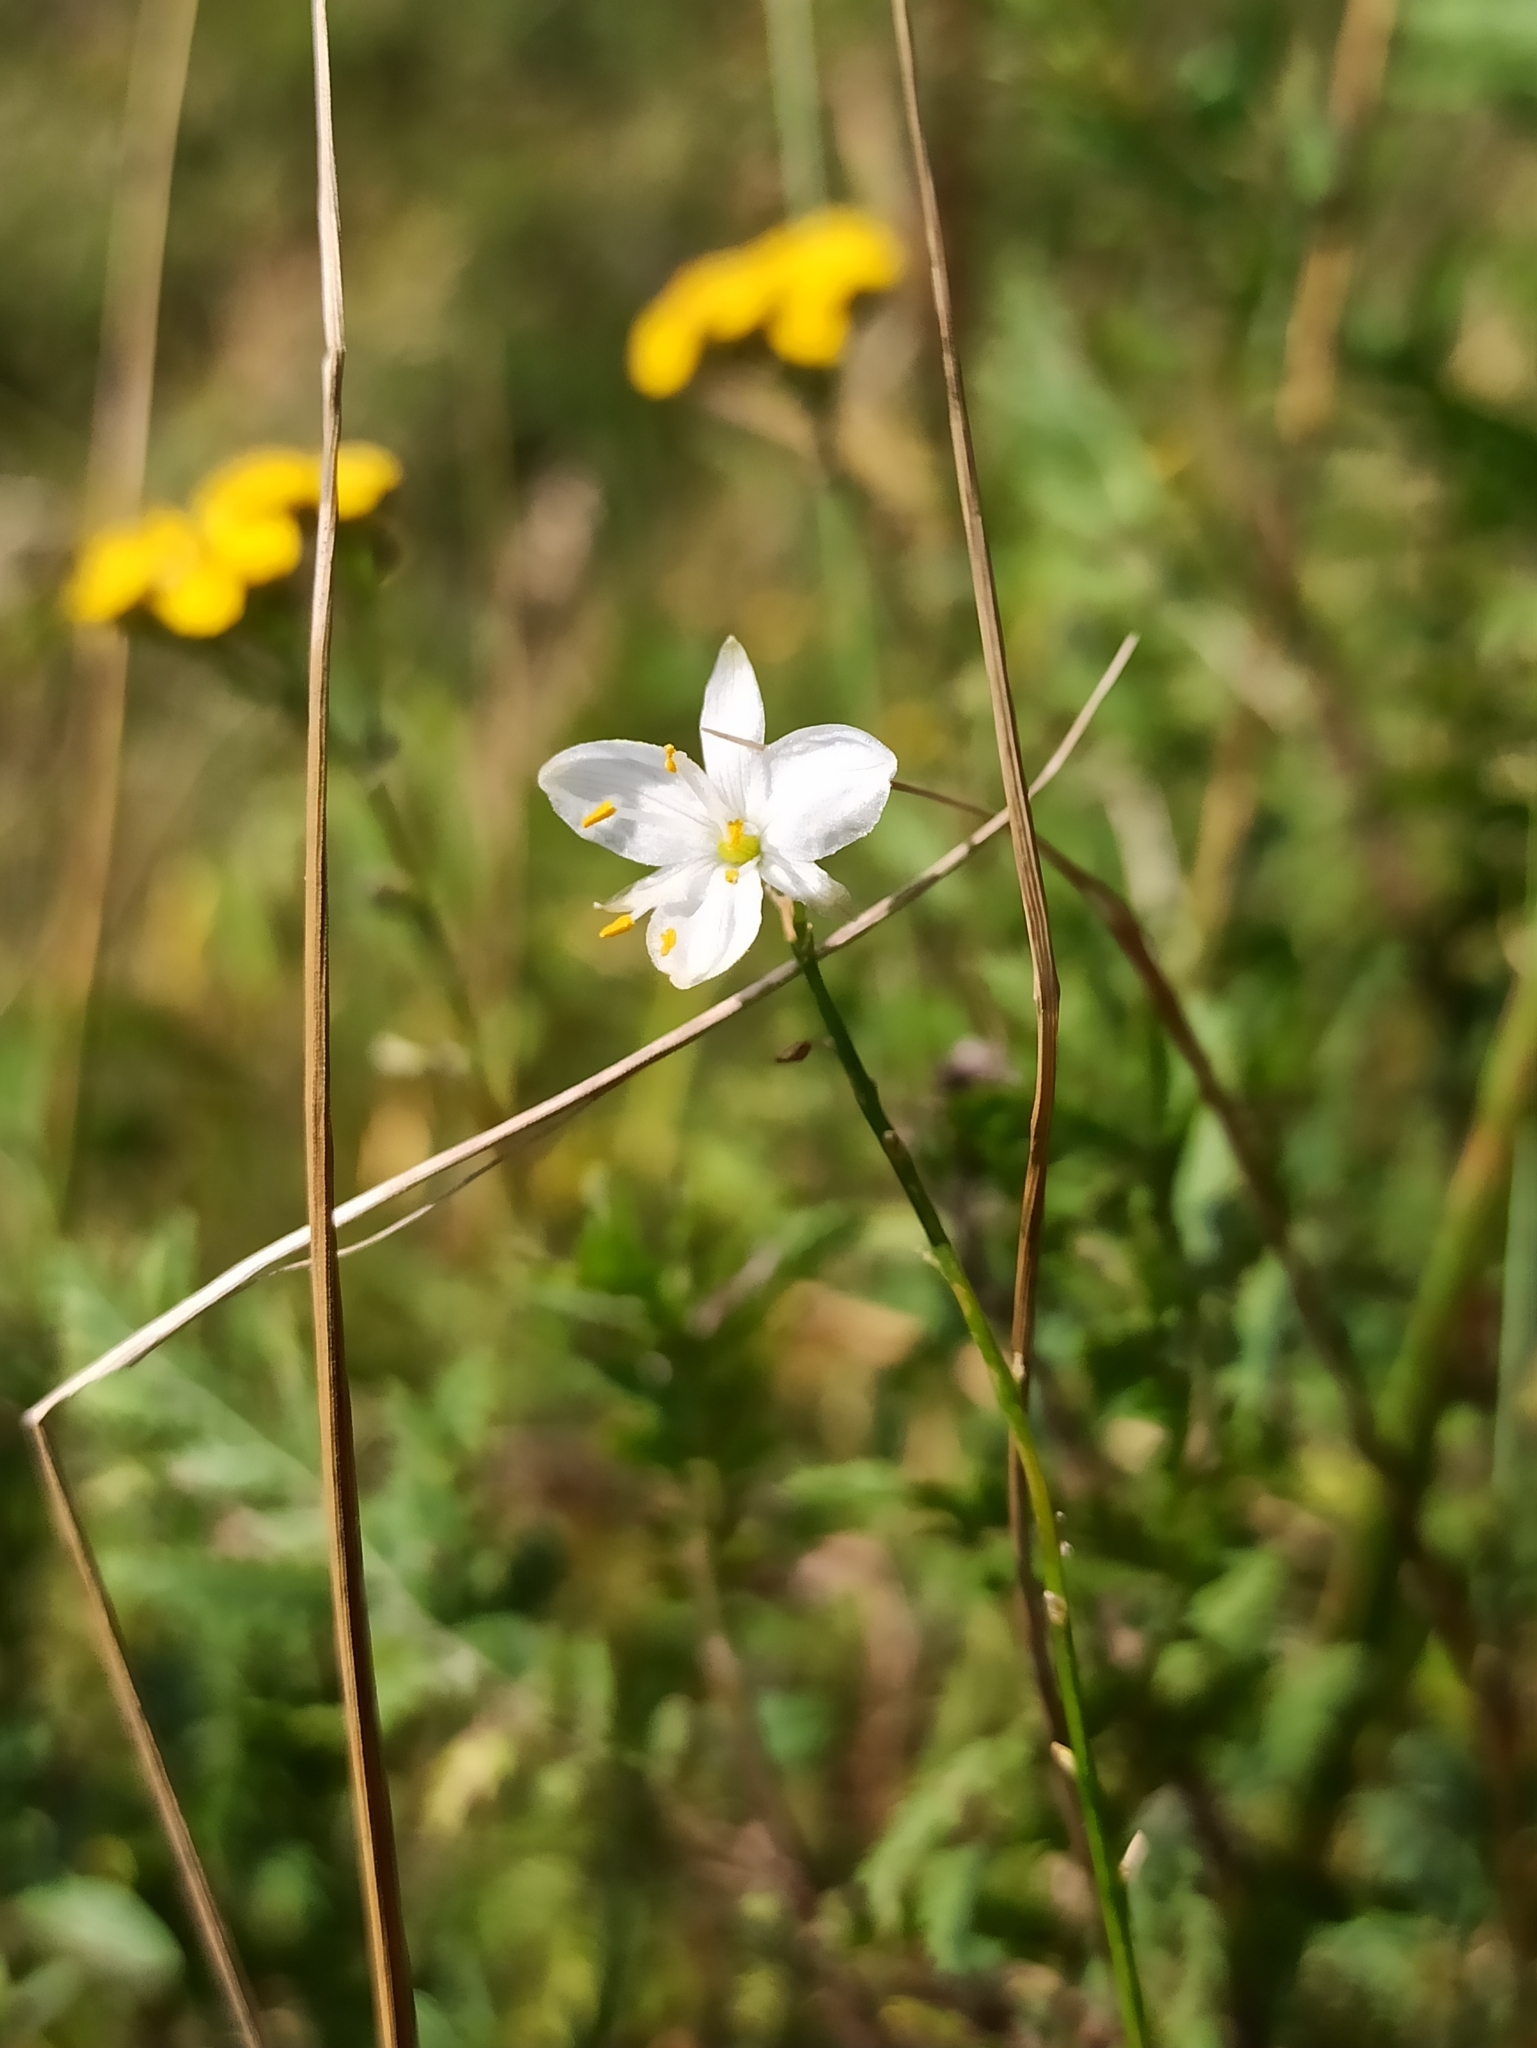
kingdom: Plantae
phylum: Tracheophyta
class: Liliopsida
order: Asparagales
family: Asparagaceae
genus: Anthericum
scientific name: Anthericum ramosum
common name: Branched st. bernard's-lily
